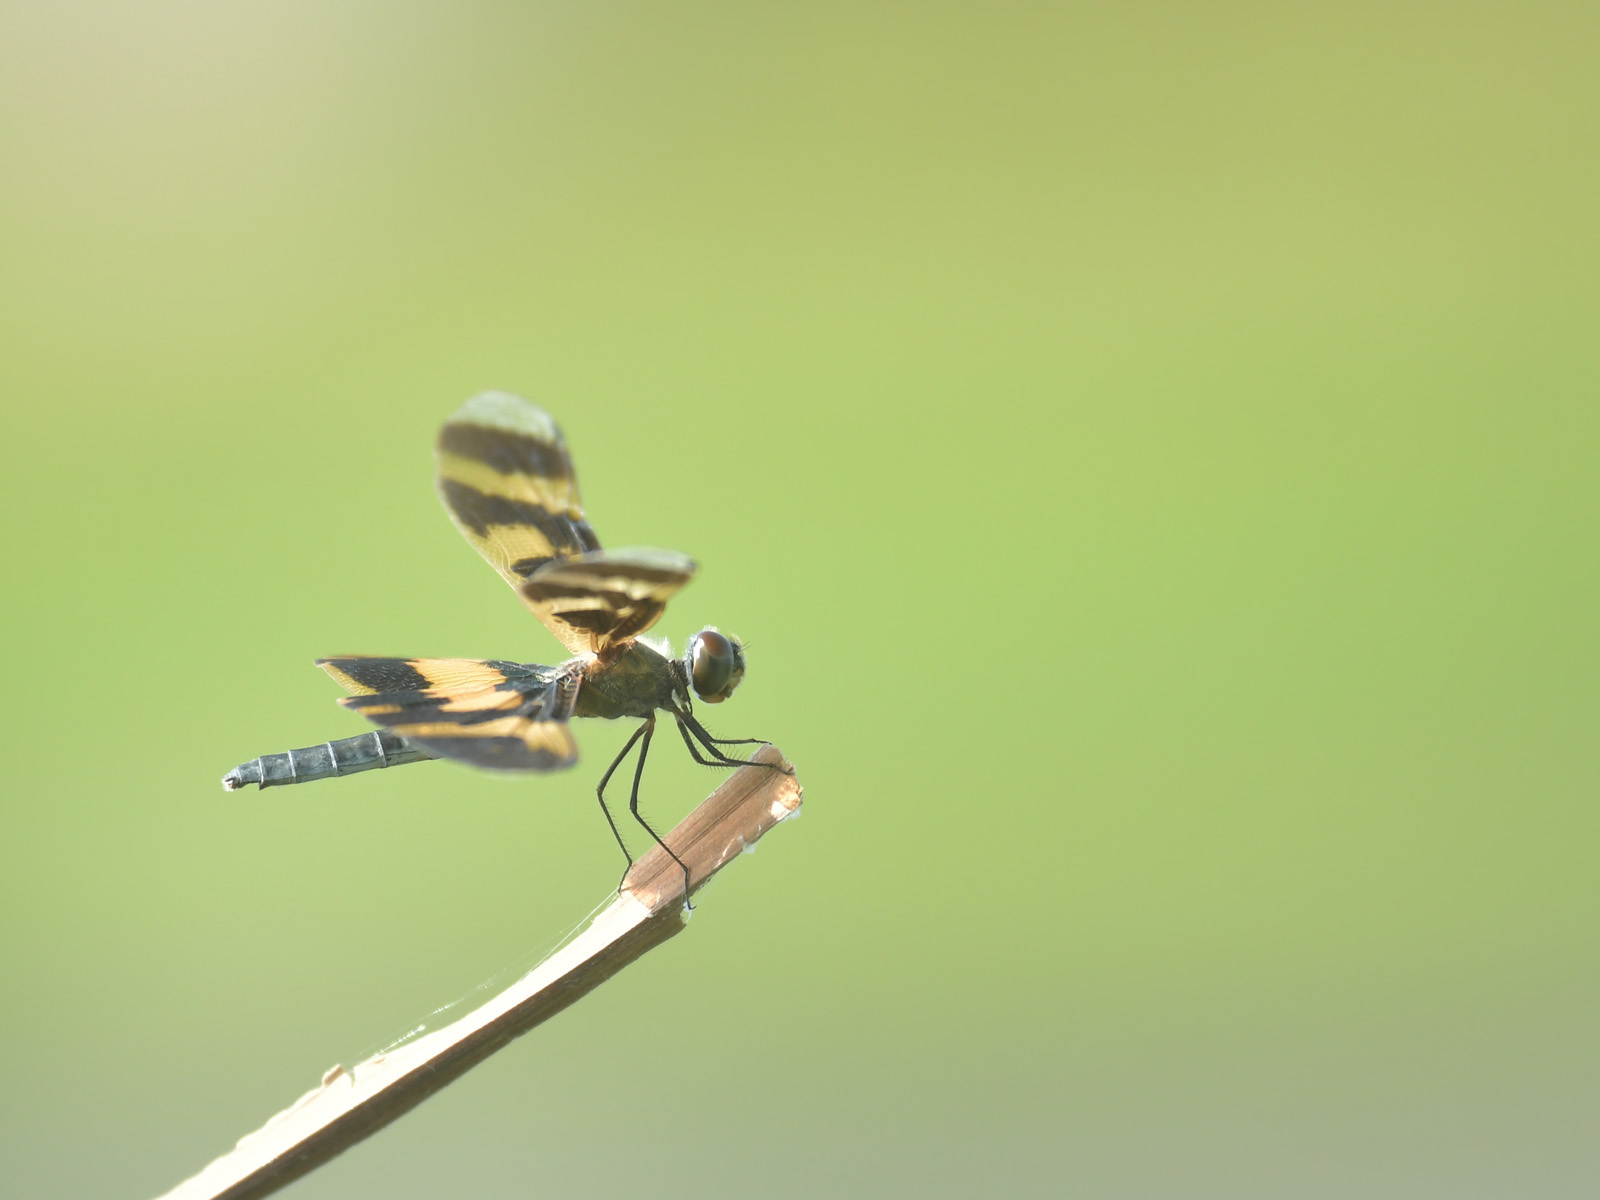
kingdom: Animalia
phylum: Arthropoda
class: Insecta
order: Odonata
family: Libellulidae
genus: Rhyothemis
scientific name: Rhyothemis variegata
